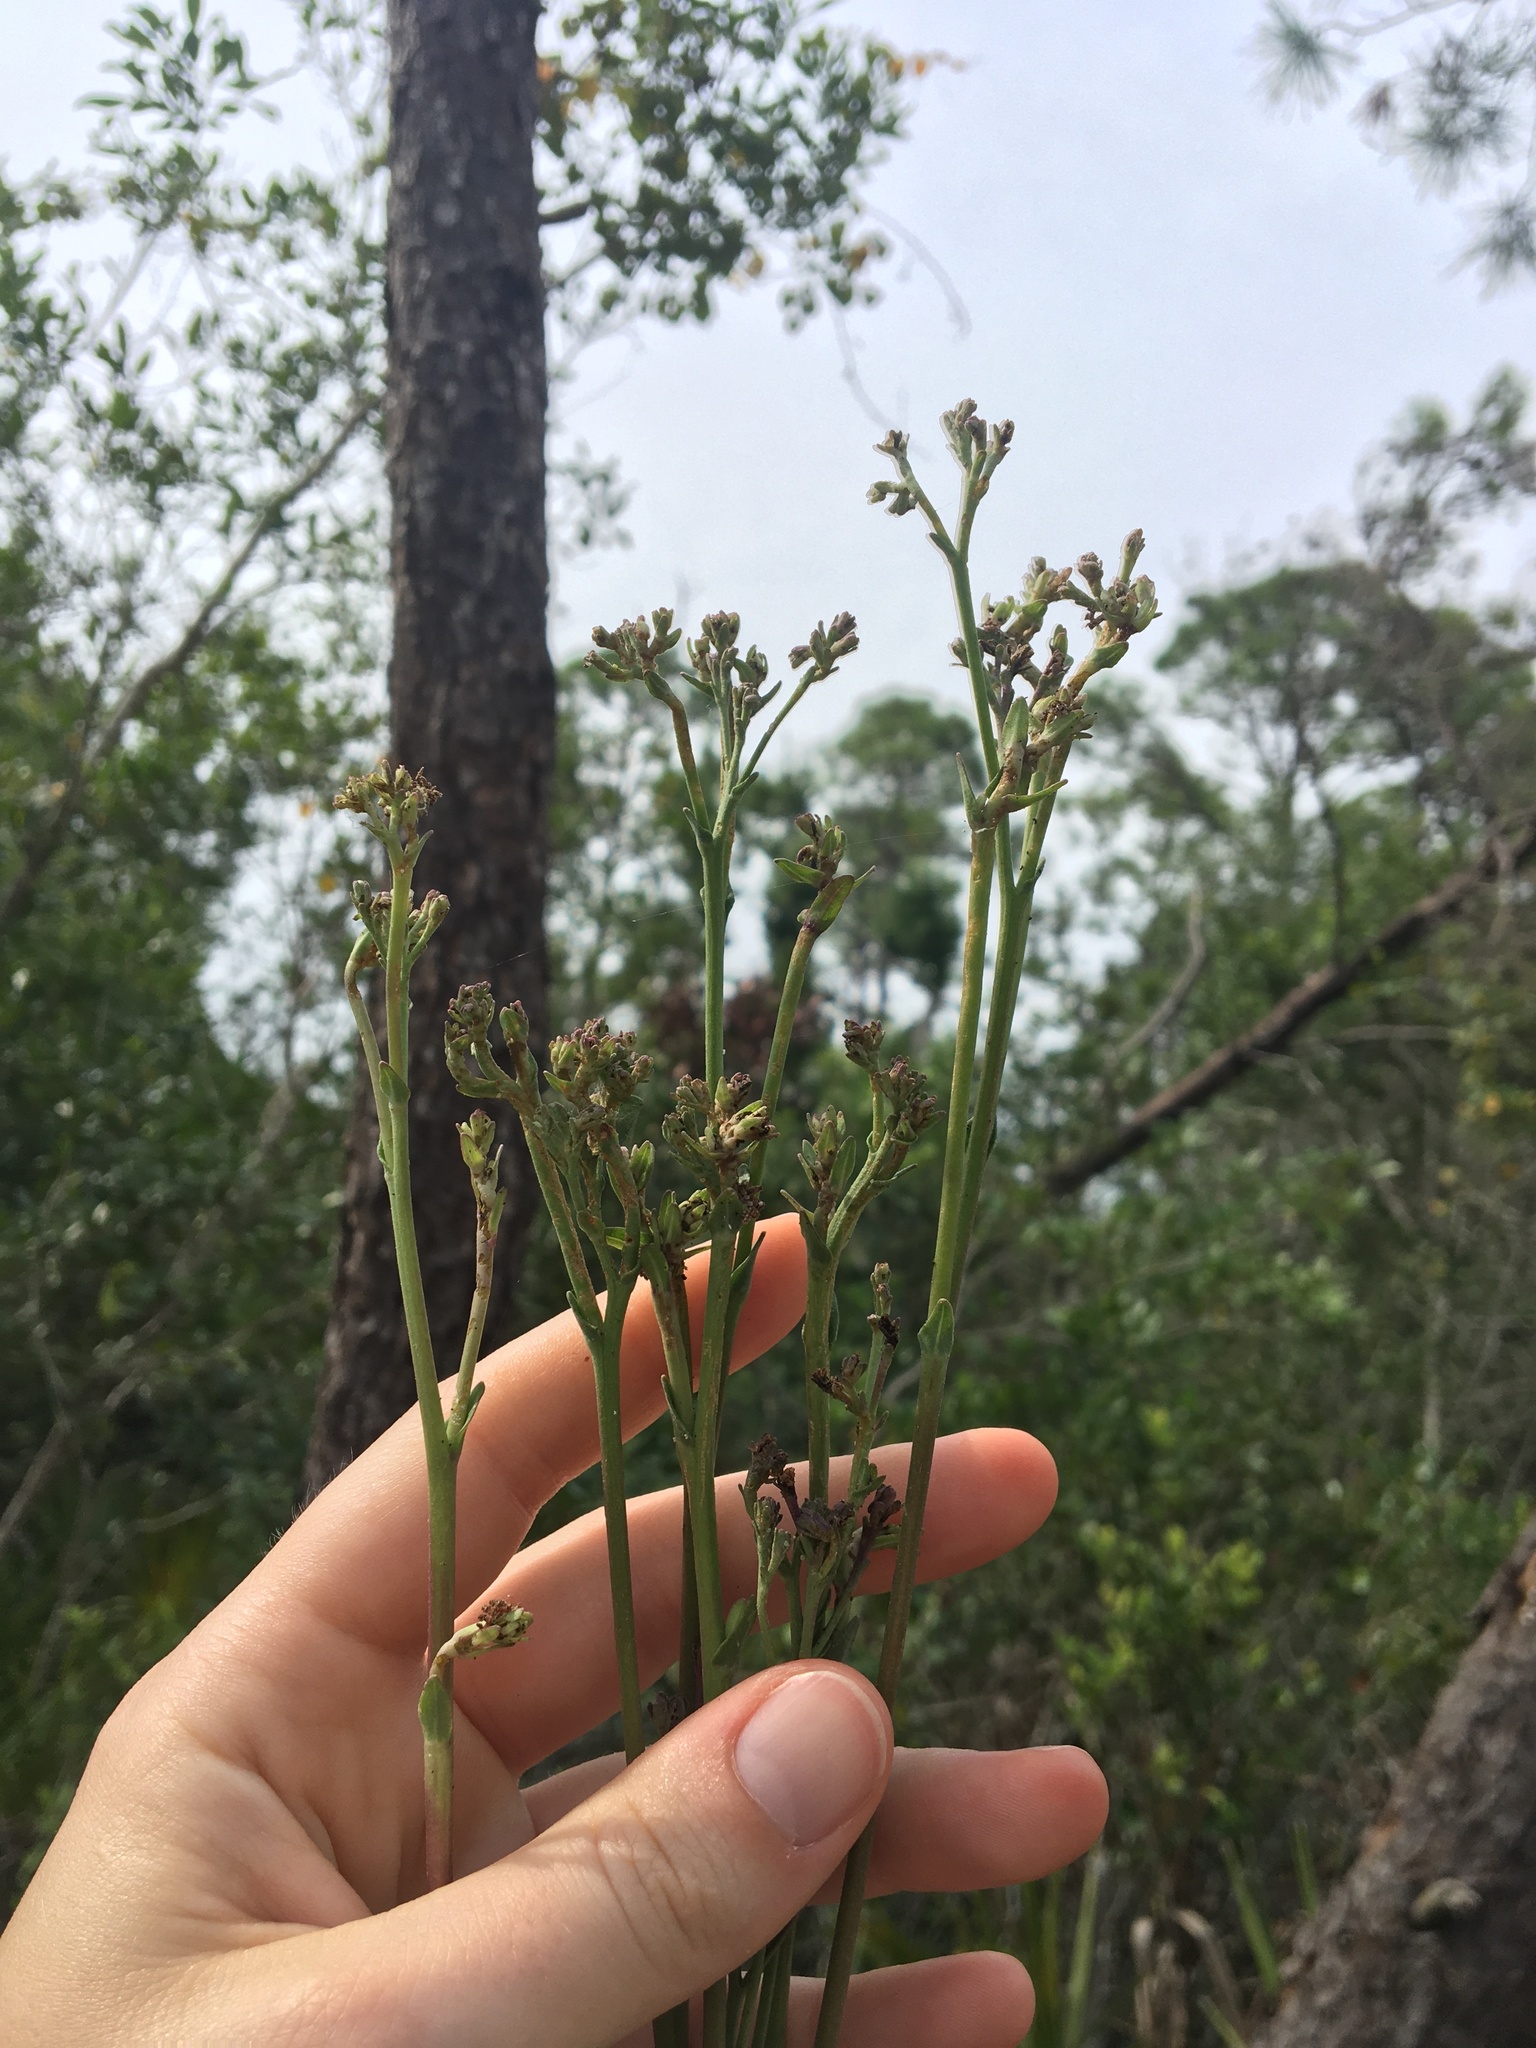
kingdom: Plantae
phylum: Tracheophyta
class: Magnoliopsida
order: Asterales
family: Asteraceae
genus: Carphephorus
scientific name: Carphephorus odoratissimus
